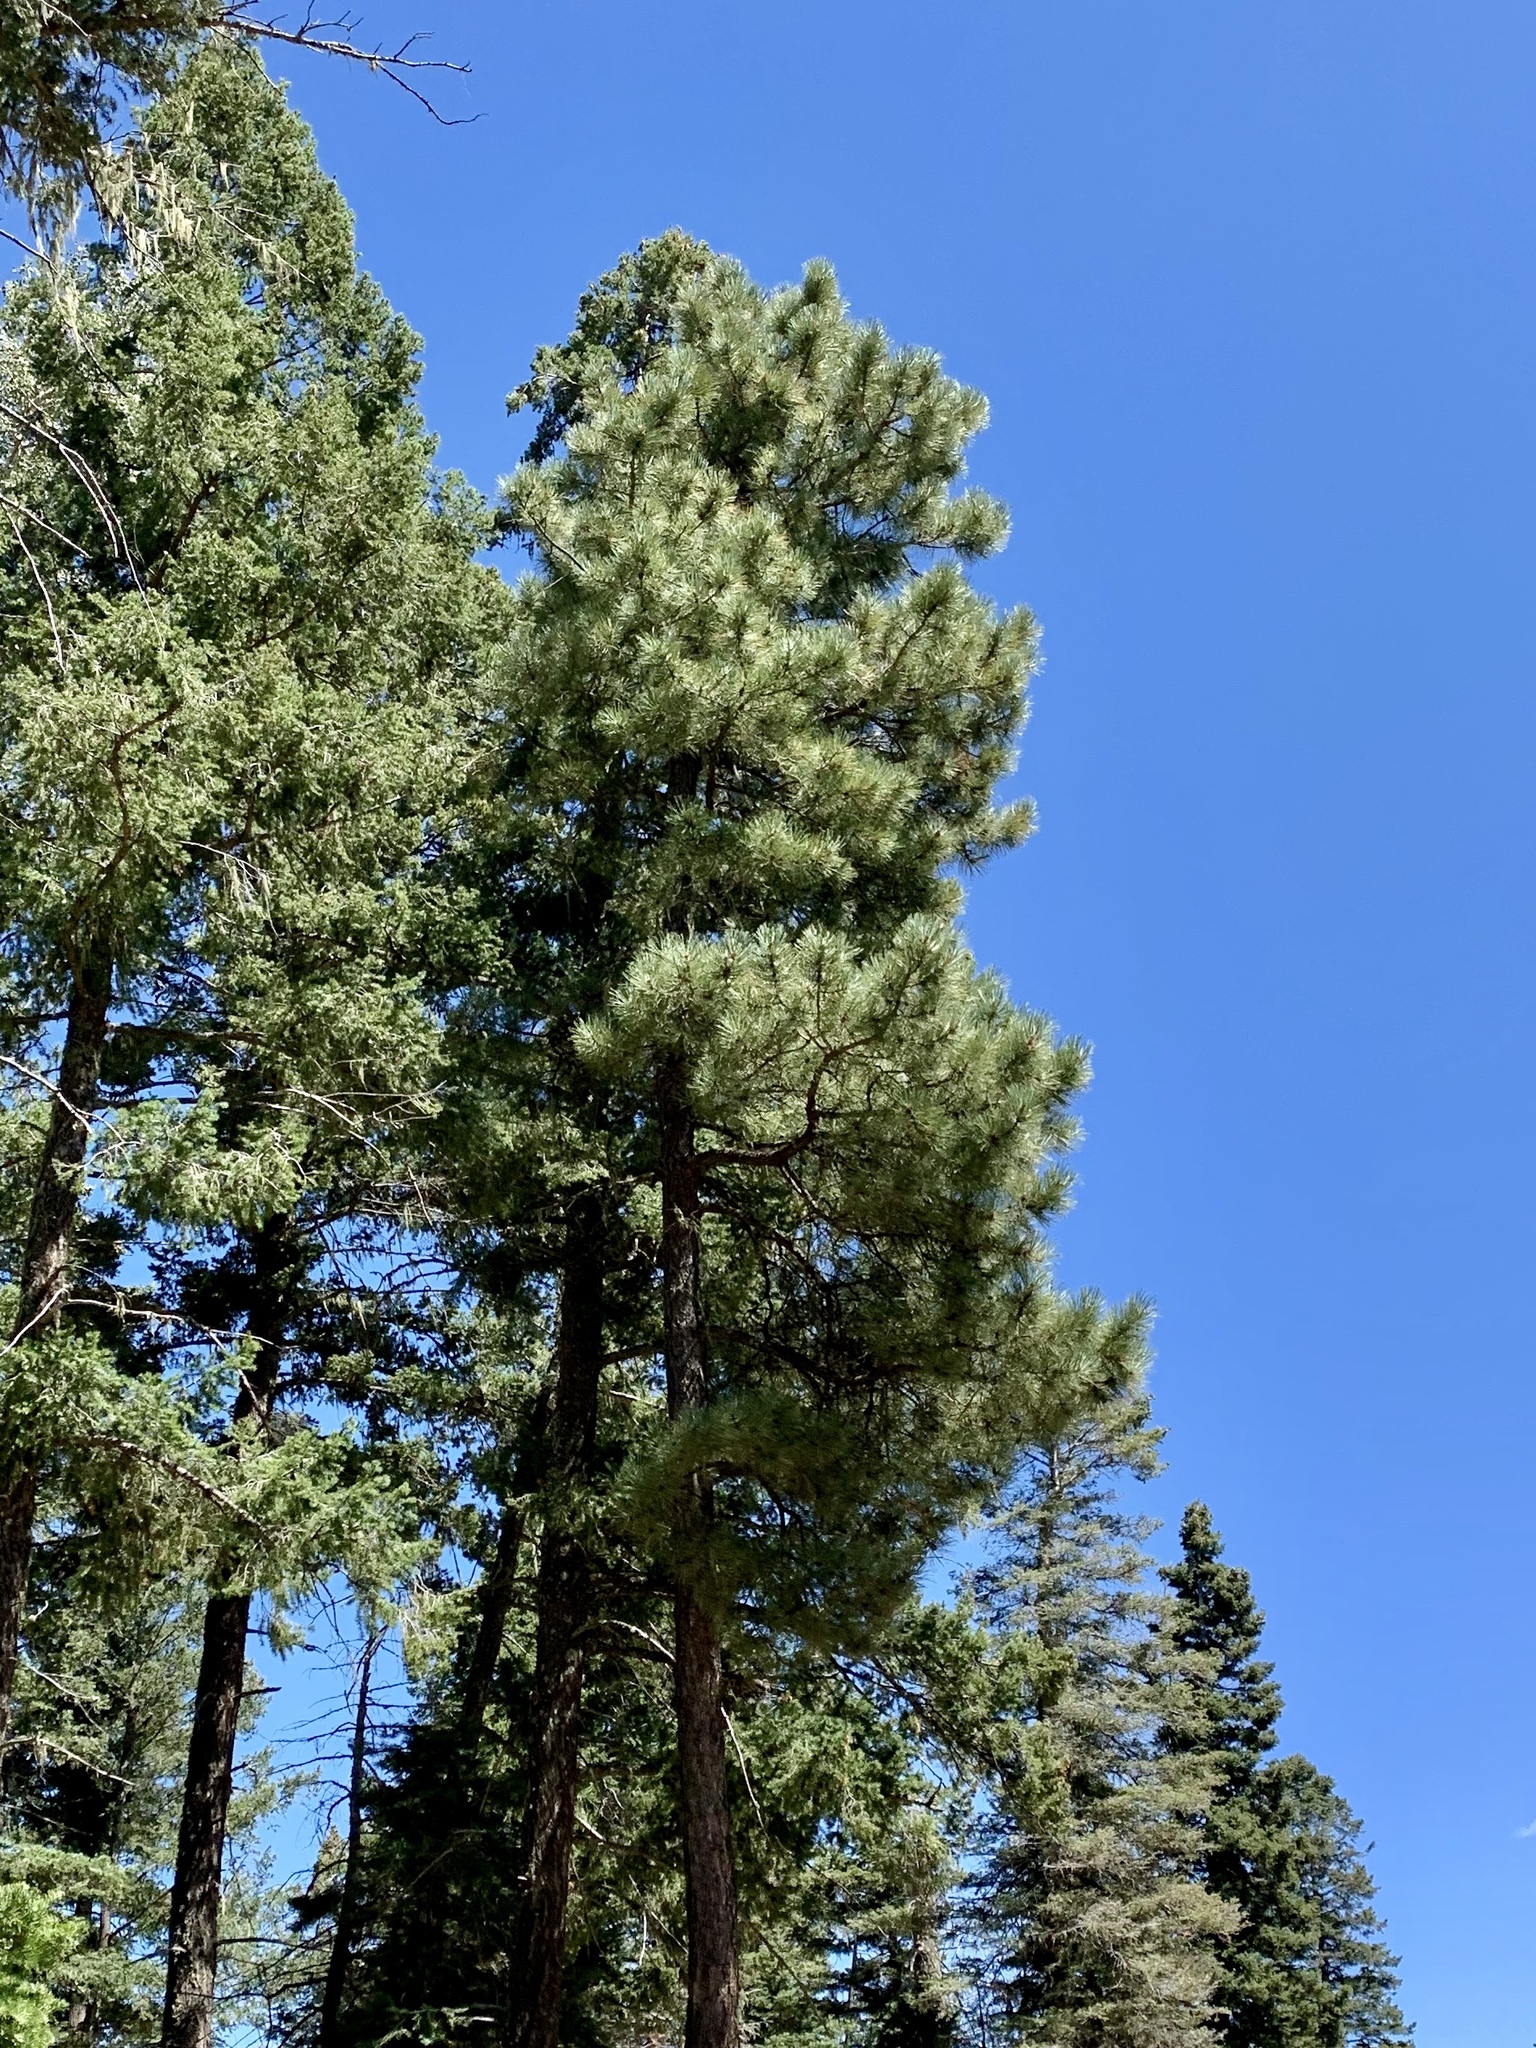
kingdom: Plantae
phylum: Tracheophyta
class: Pinopsida
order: Pinales
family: Pinaceae
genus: Pinus
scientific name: Pinus ponderosa
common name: Western yellow-pine
